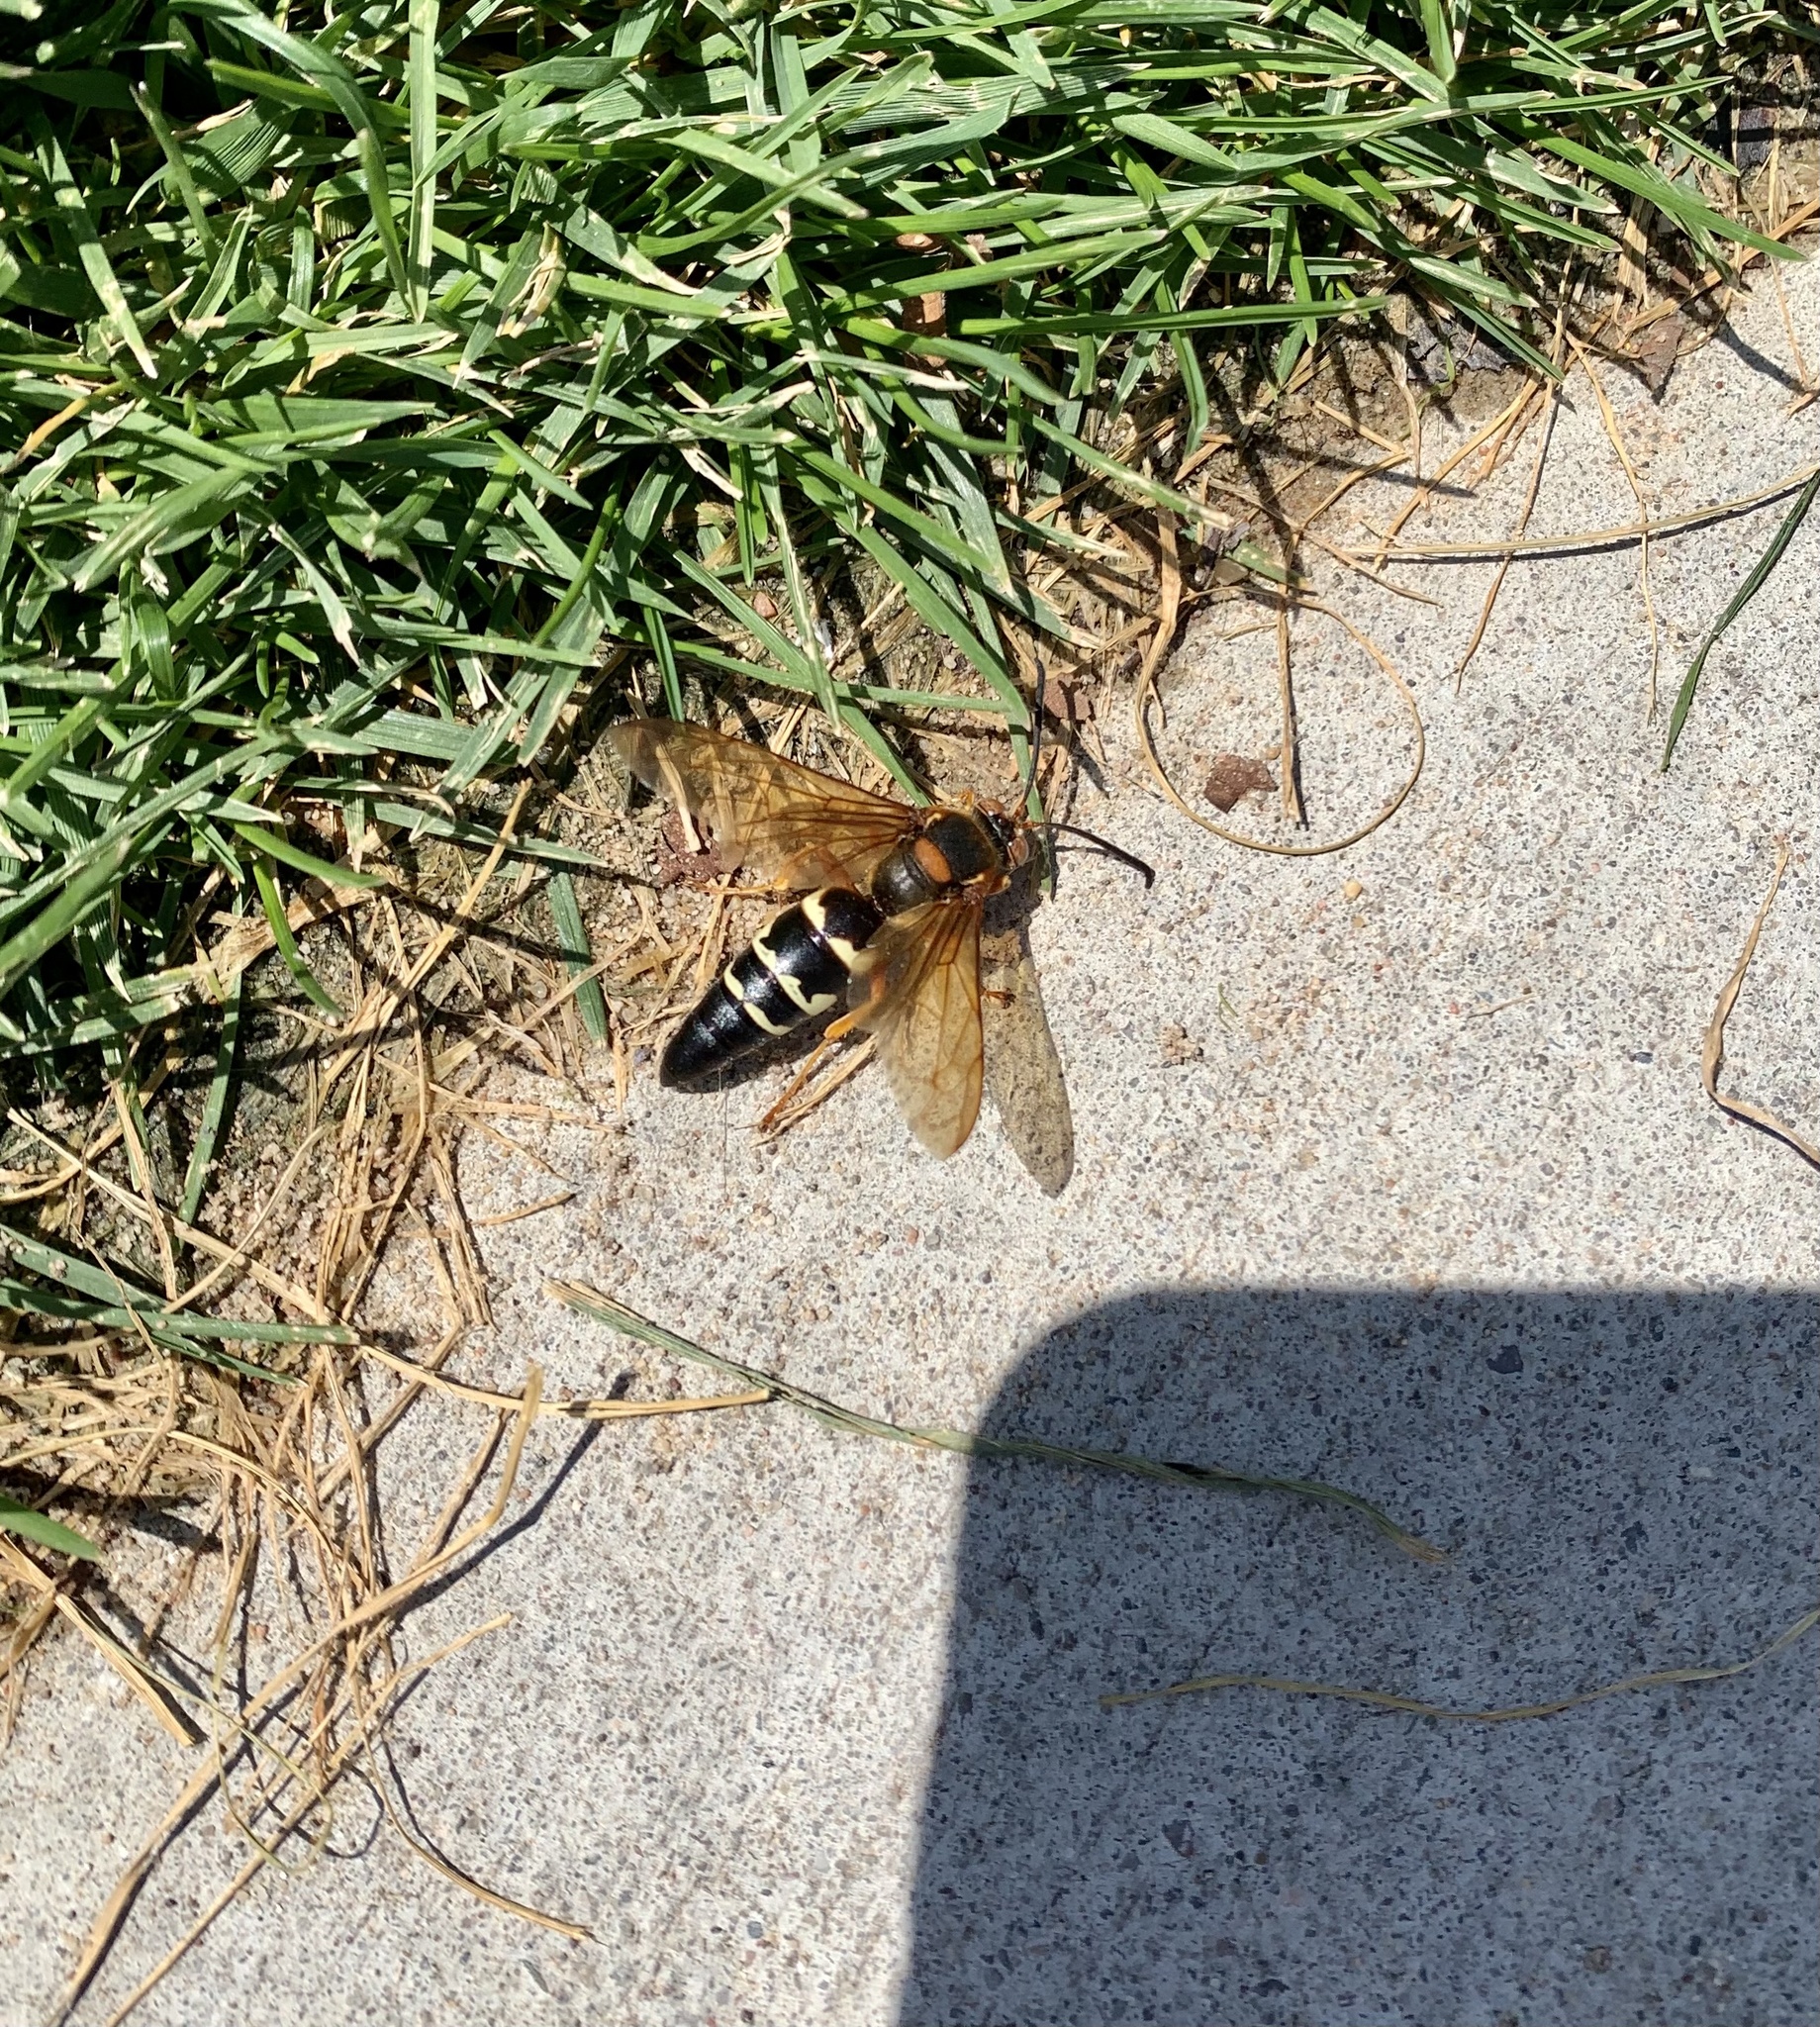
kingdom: Animalia
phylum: Arthropoda
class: Insecta
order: Hymenoptera
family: Crabronidae
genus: Sphecius
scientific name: Sphecius speciosus
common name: Cicada killer
